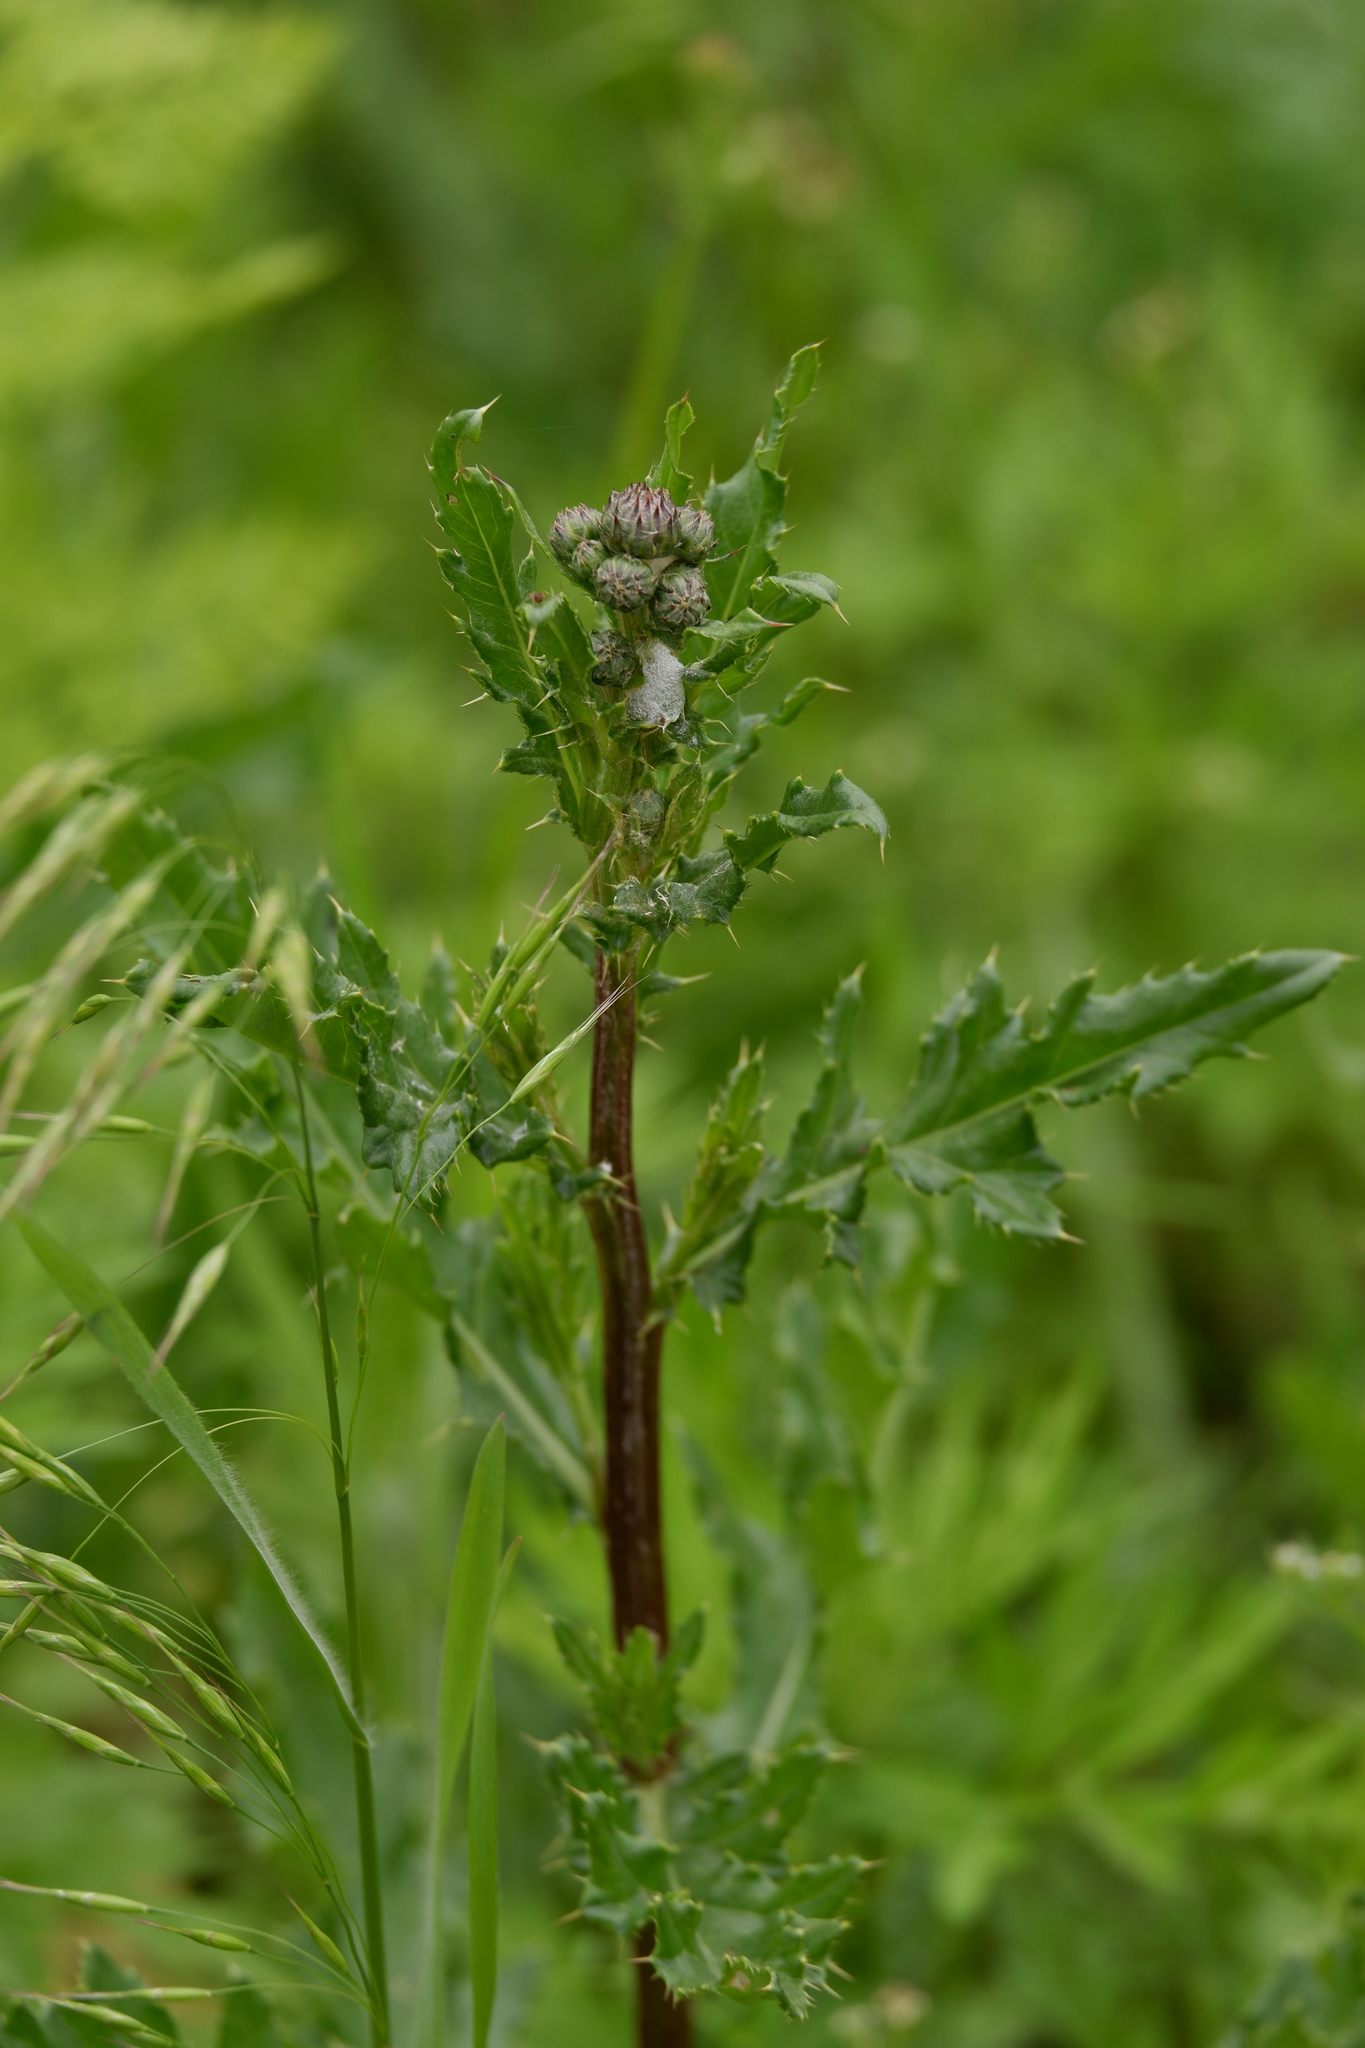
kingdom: Plantae
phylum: Tracheophyta
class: Magnoliopsida
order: Asterales
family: Asteraceae
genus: Cirsium
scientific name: Cirsium arvense
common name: Creeping thistle
